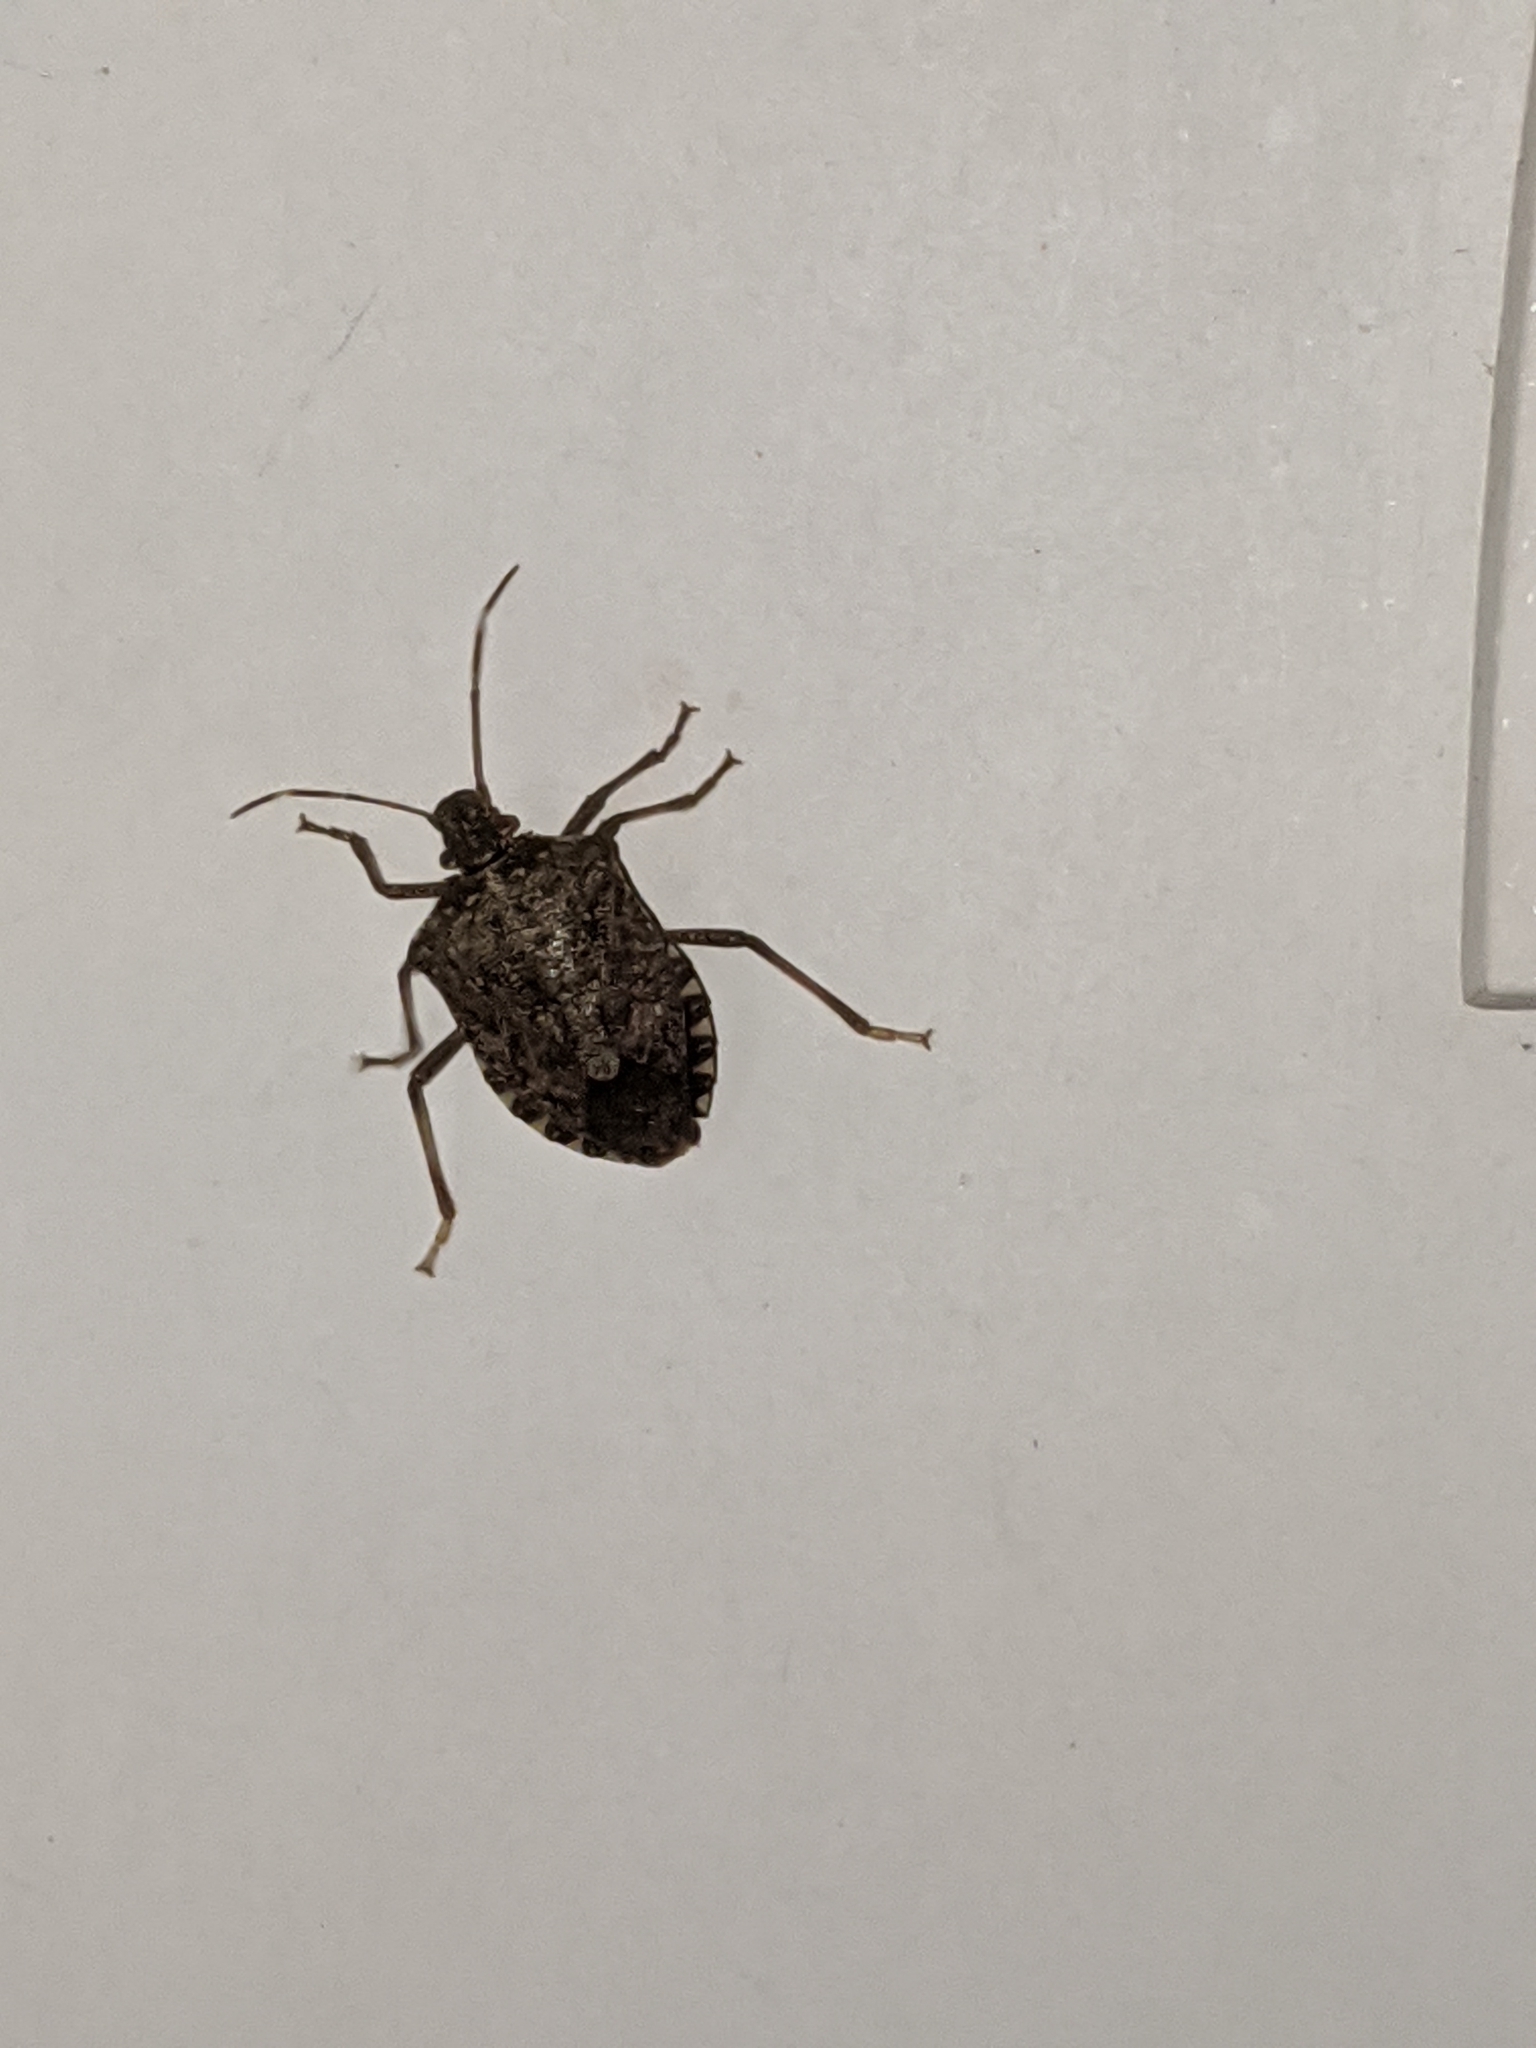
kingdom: Animalia
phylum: Arthropoda
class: Insecta
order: Hemiptera
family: Pentatomidae
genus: Halyomorpha
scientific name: Halyomorpha halys
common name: Brown marmorated stink bug
